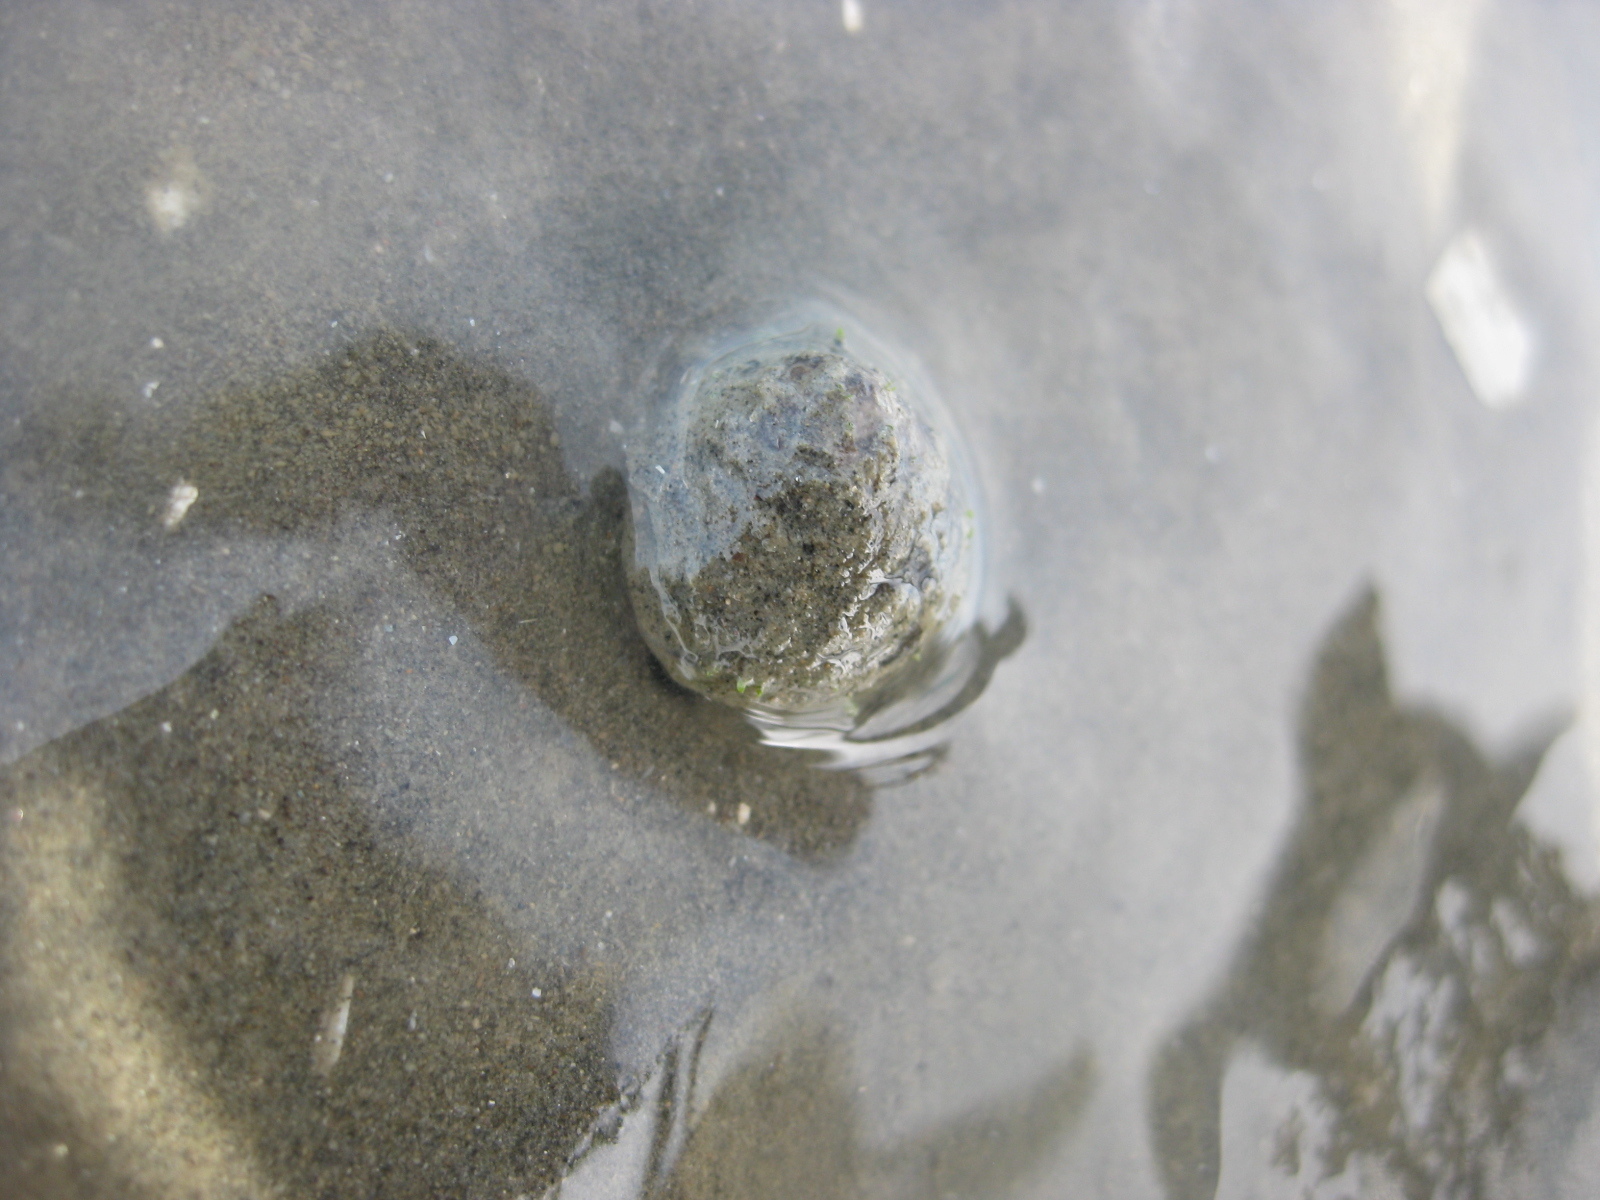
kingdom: Animalia
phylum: Mollusca
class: Gastropoda
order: Trochida
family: Trochidae
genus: Diloma
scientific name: Diloma subrostratum
